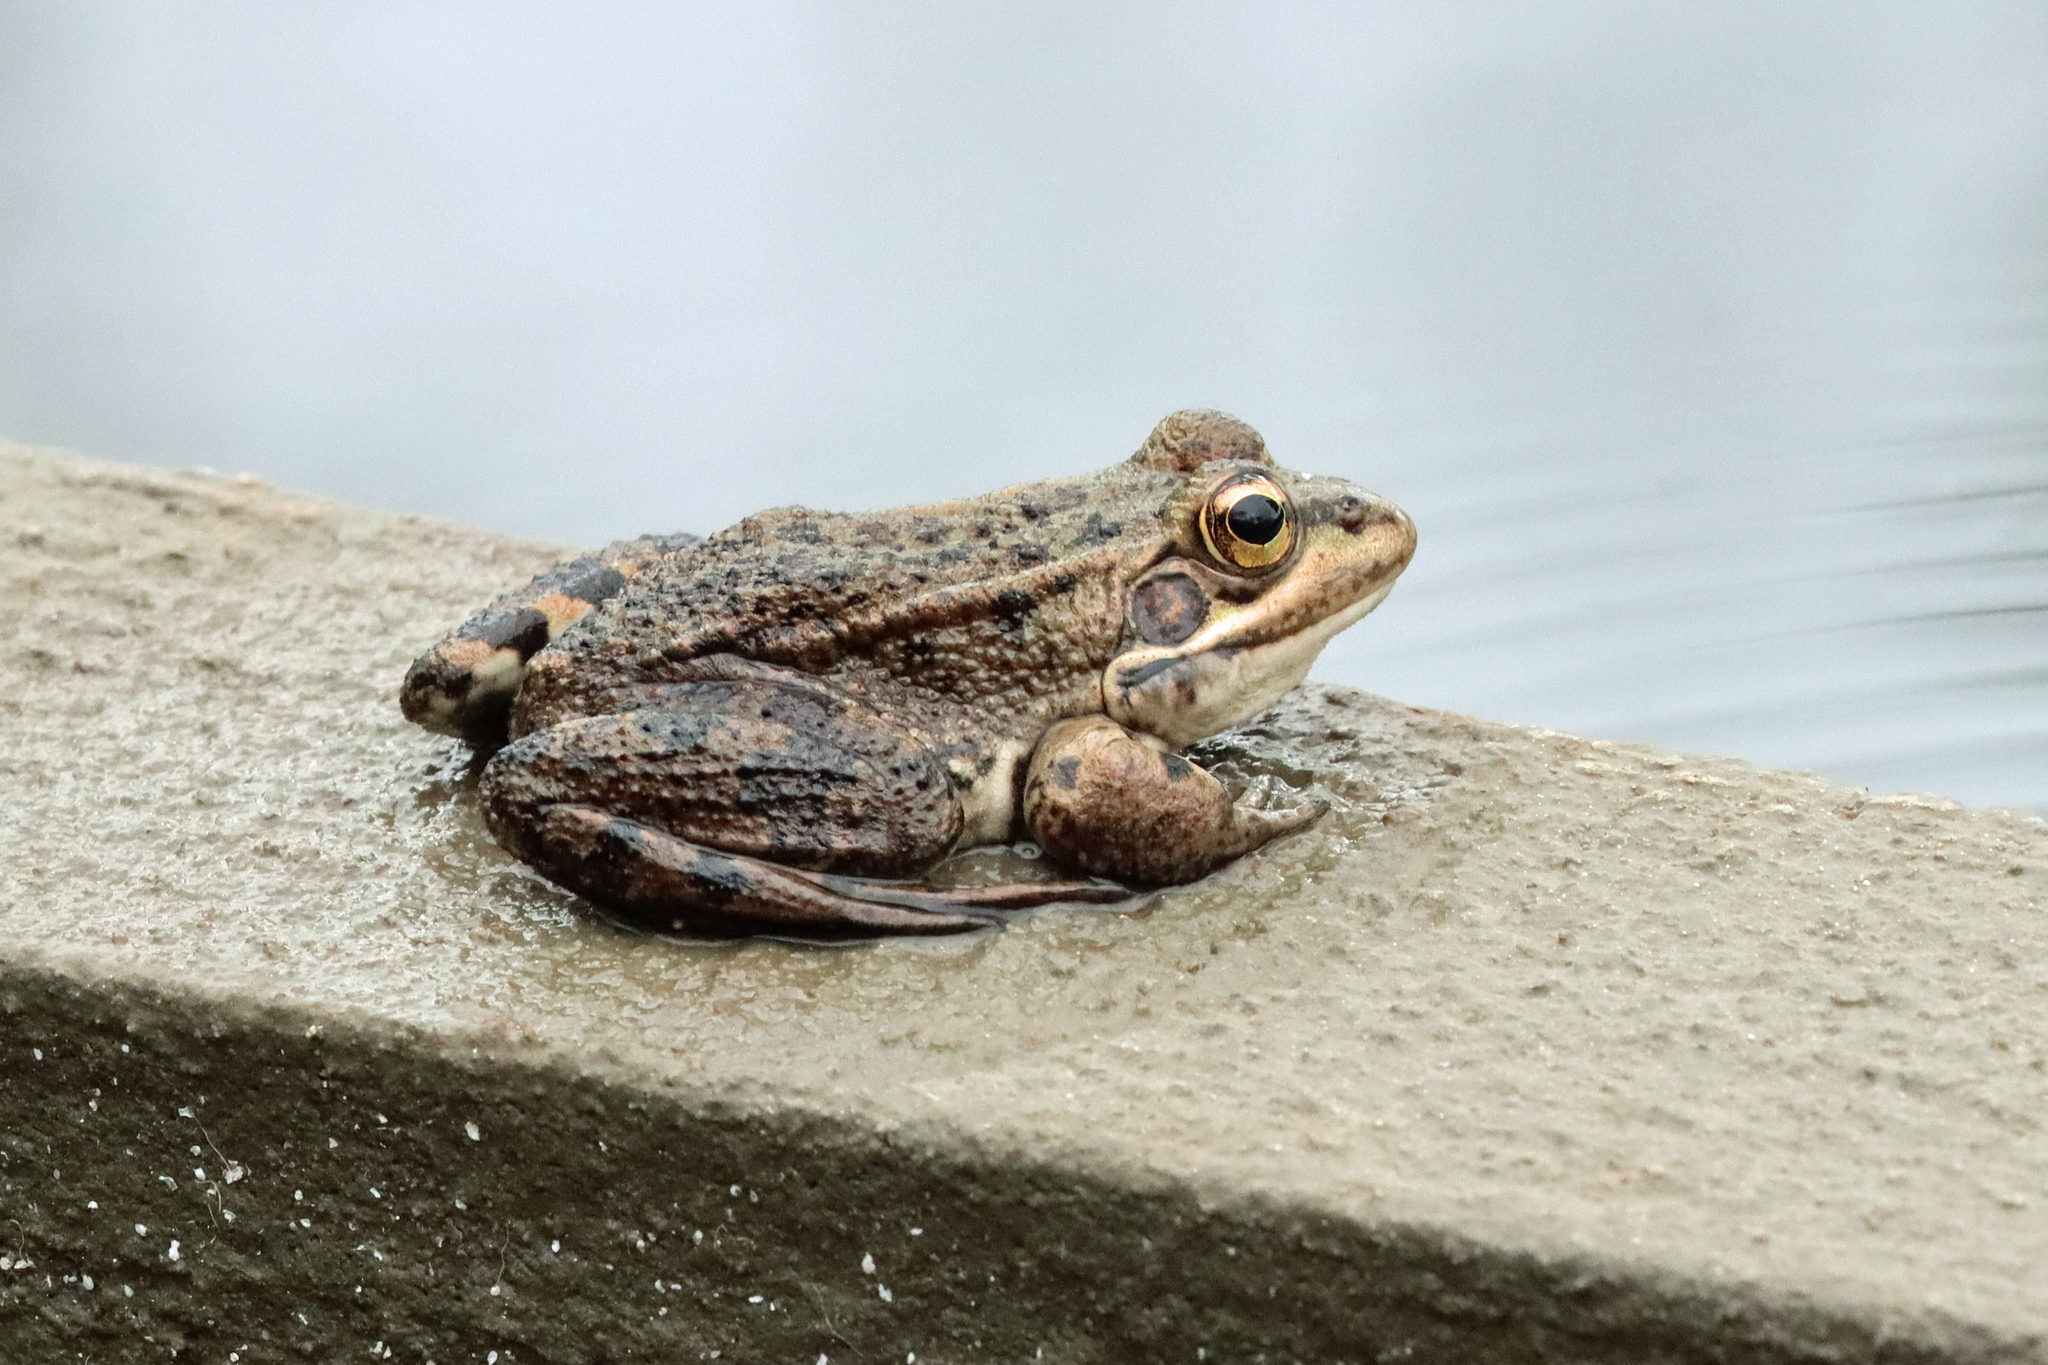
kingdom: Animalia
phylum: Chordata
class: Amphibia
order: Anura
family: Ranidae
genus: Pelophylax
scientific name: Pelophylax perezi
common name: Perez's frog
